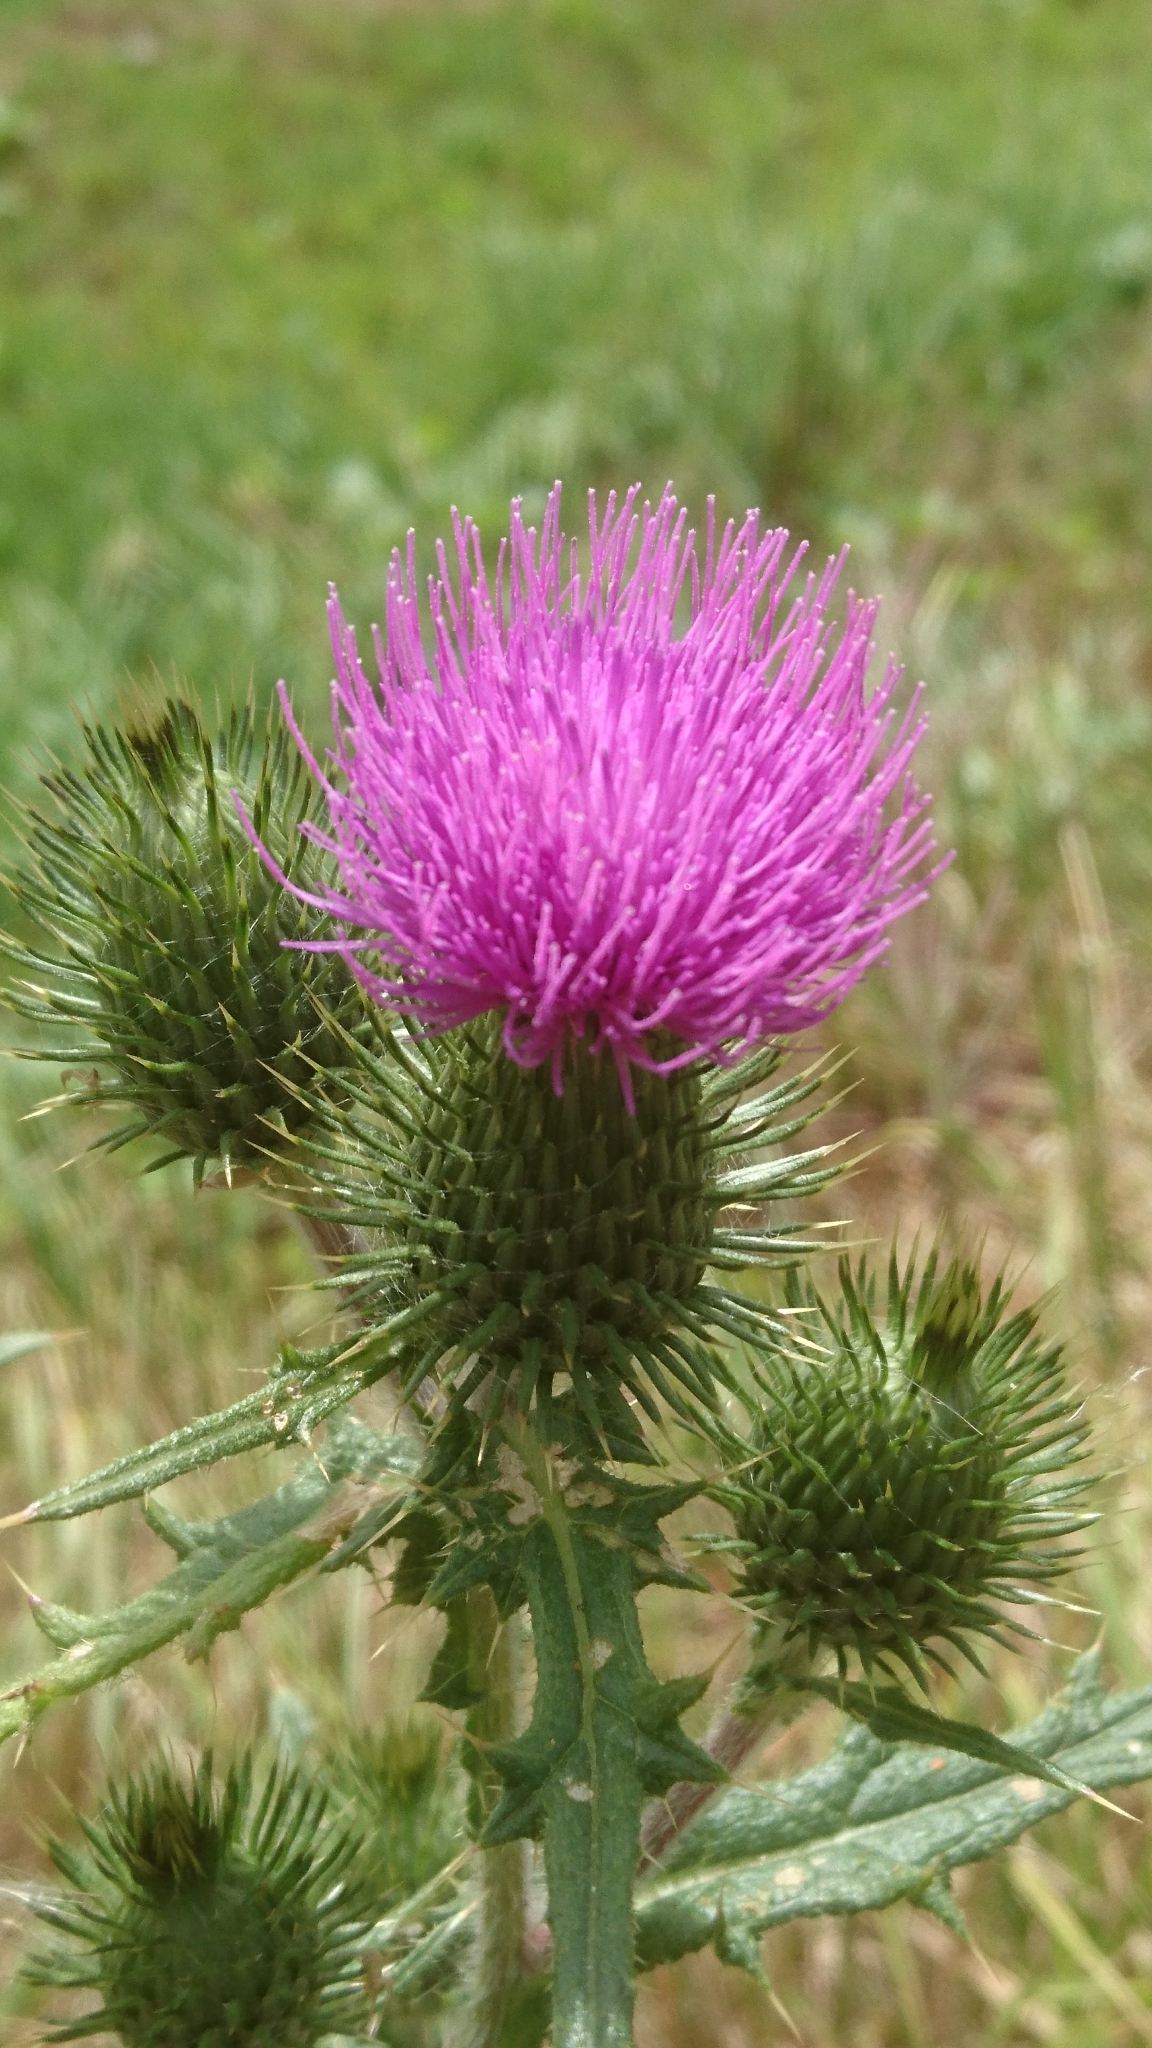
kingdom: Plantae
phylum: Tracheophyta
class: Magnoliopsida
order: Asterales
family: Asteraceae
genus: Cirsium
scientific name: Cirsium vulgare
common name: Bull thistle
